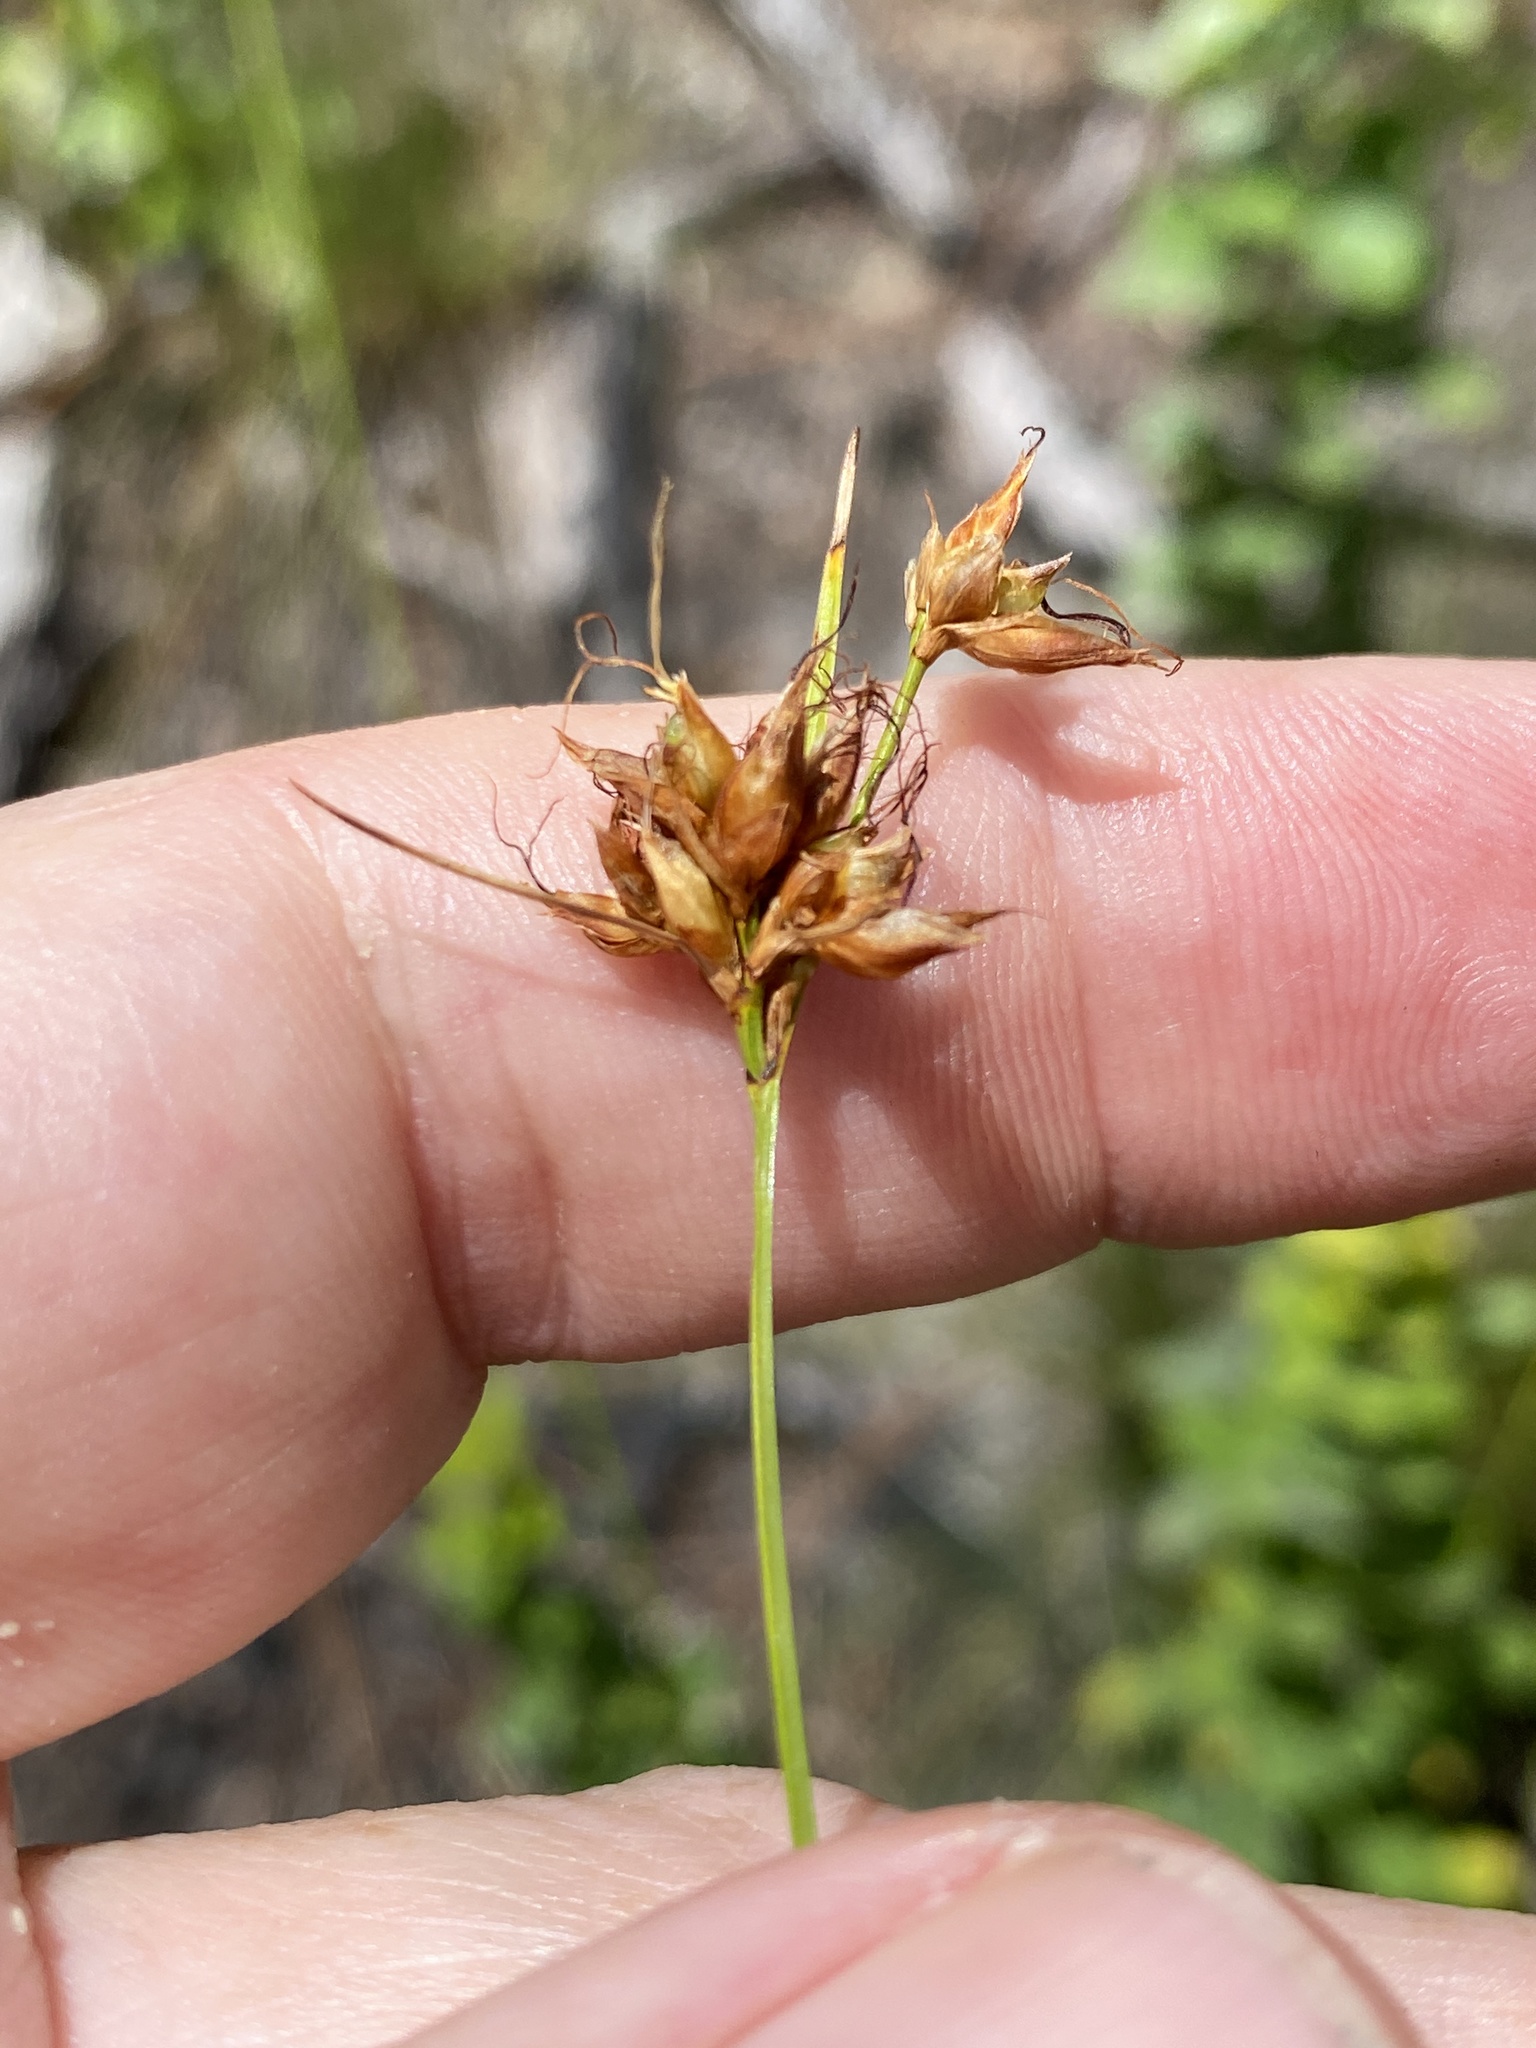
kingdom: Plantae
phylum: Tracheophyta
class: Liliopsida
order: Poales
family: Cyperaceae
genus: Rhynchospora
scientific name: Rhynchospora grayi
